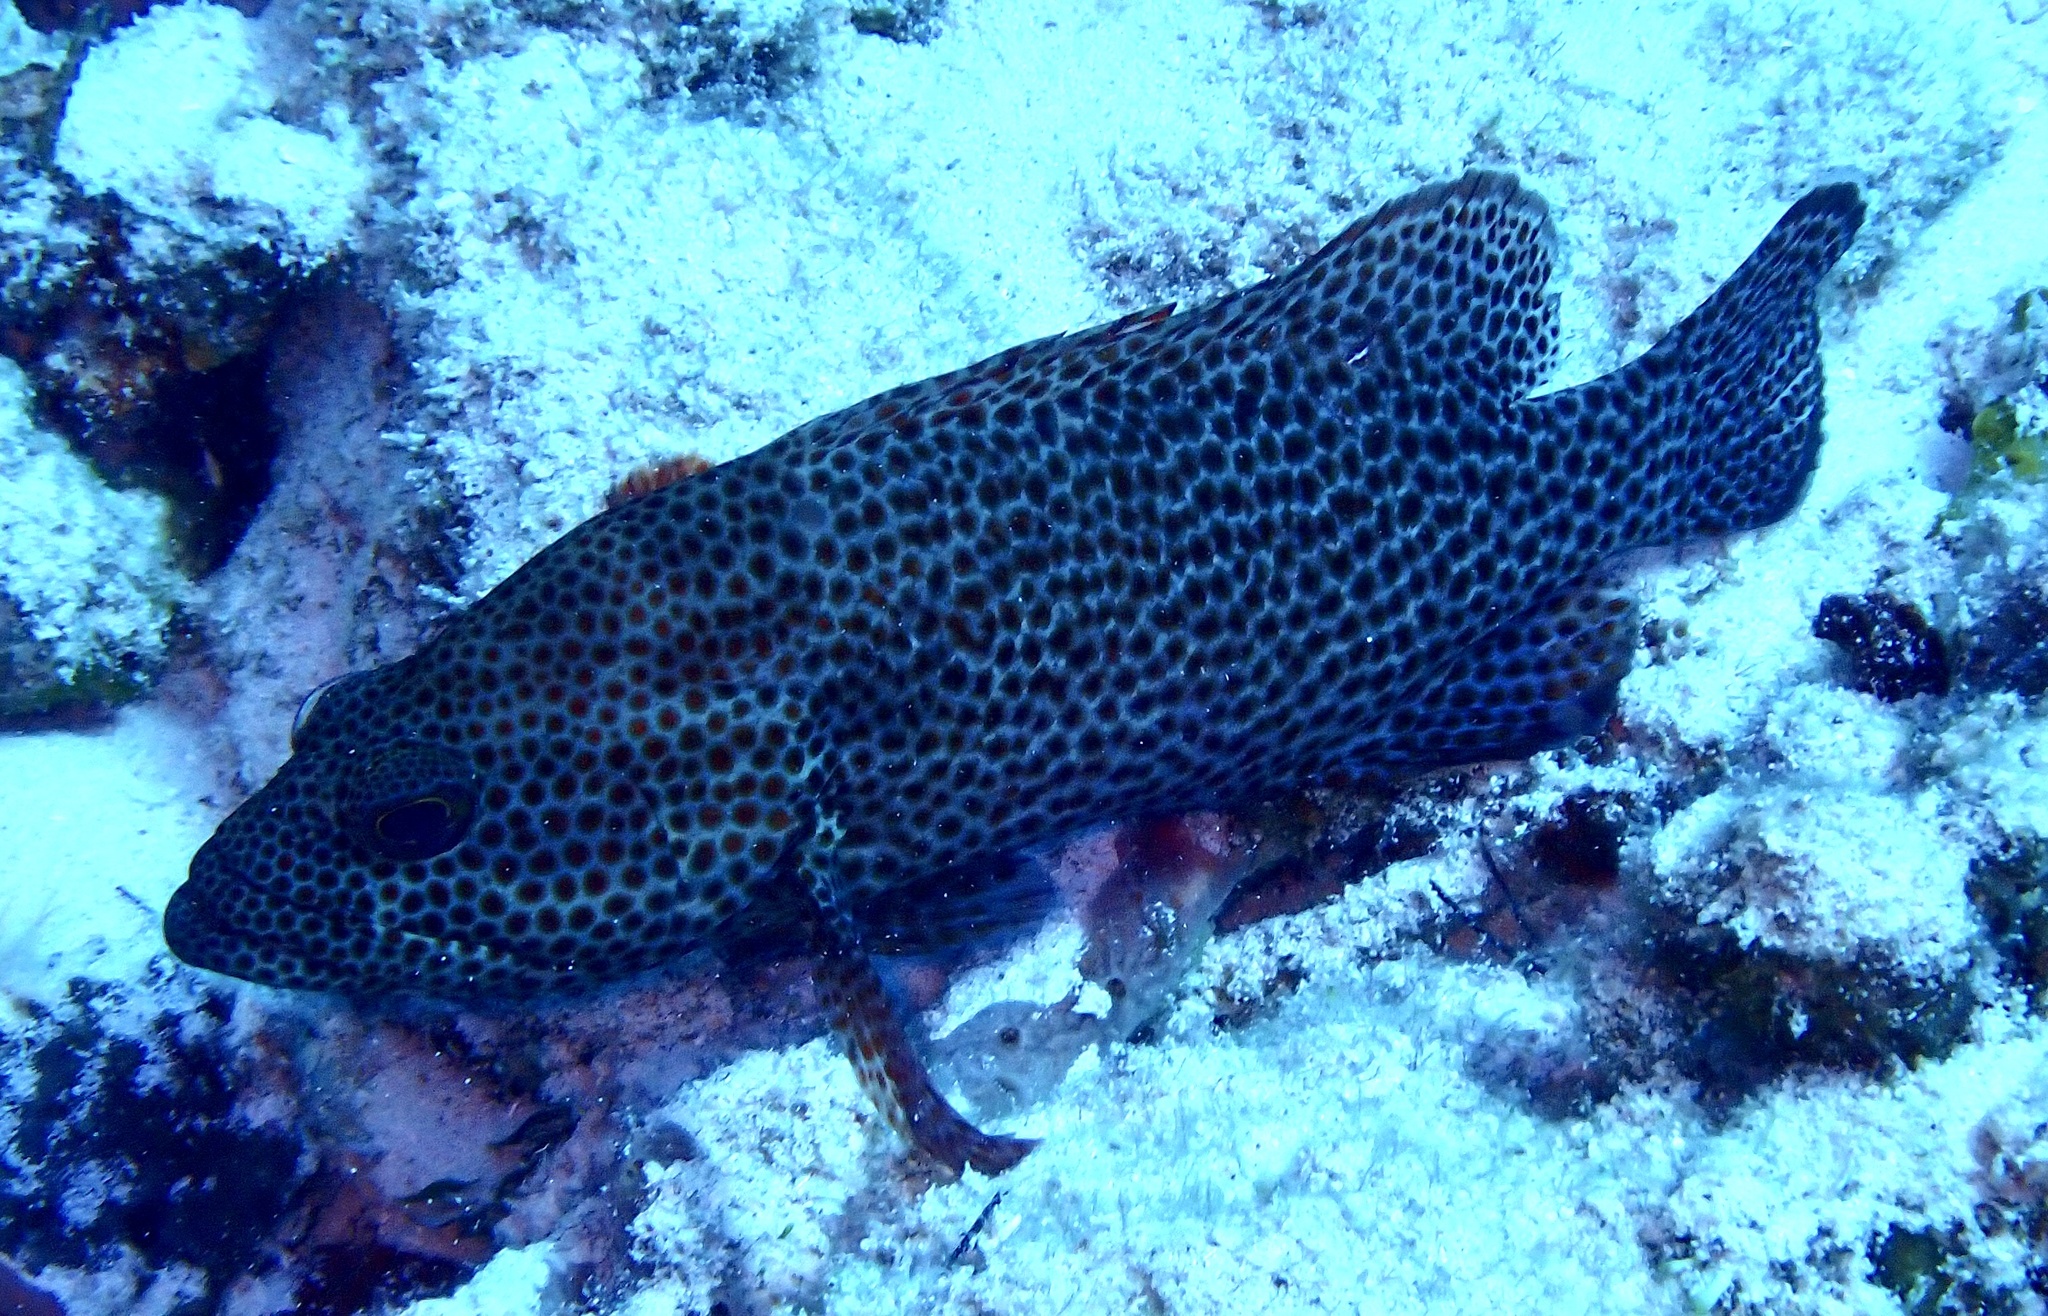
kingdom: Animalia
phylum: Chordata
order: Perciformes
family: Serranidae
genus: Cephalopholis
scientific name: Cephalopholis cruentata
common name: Graysby
